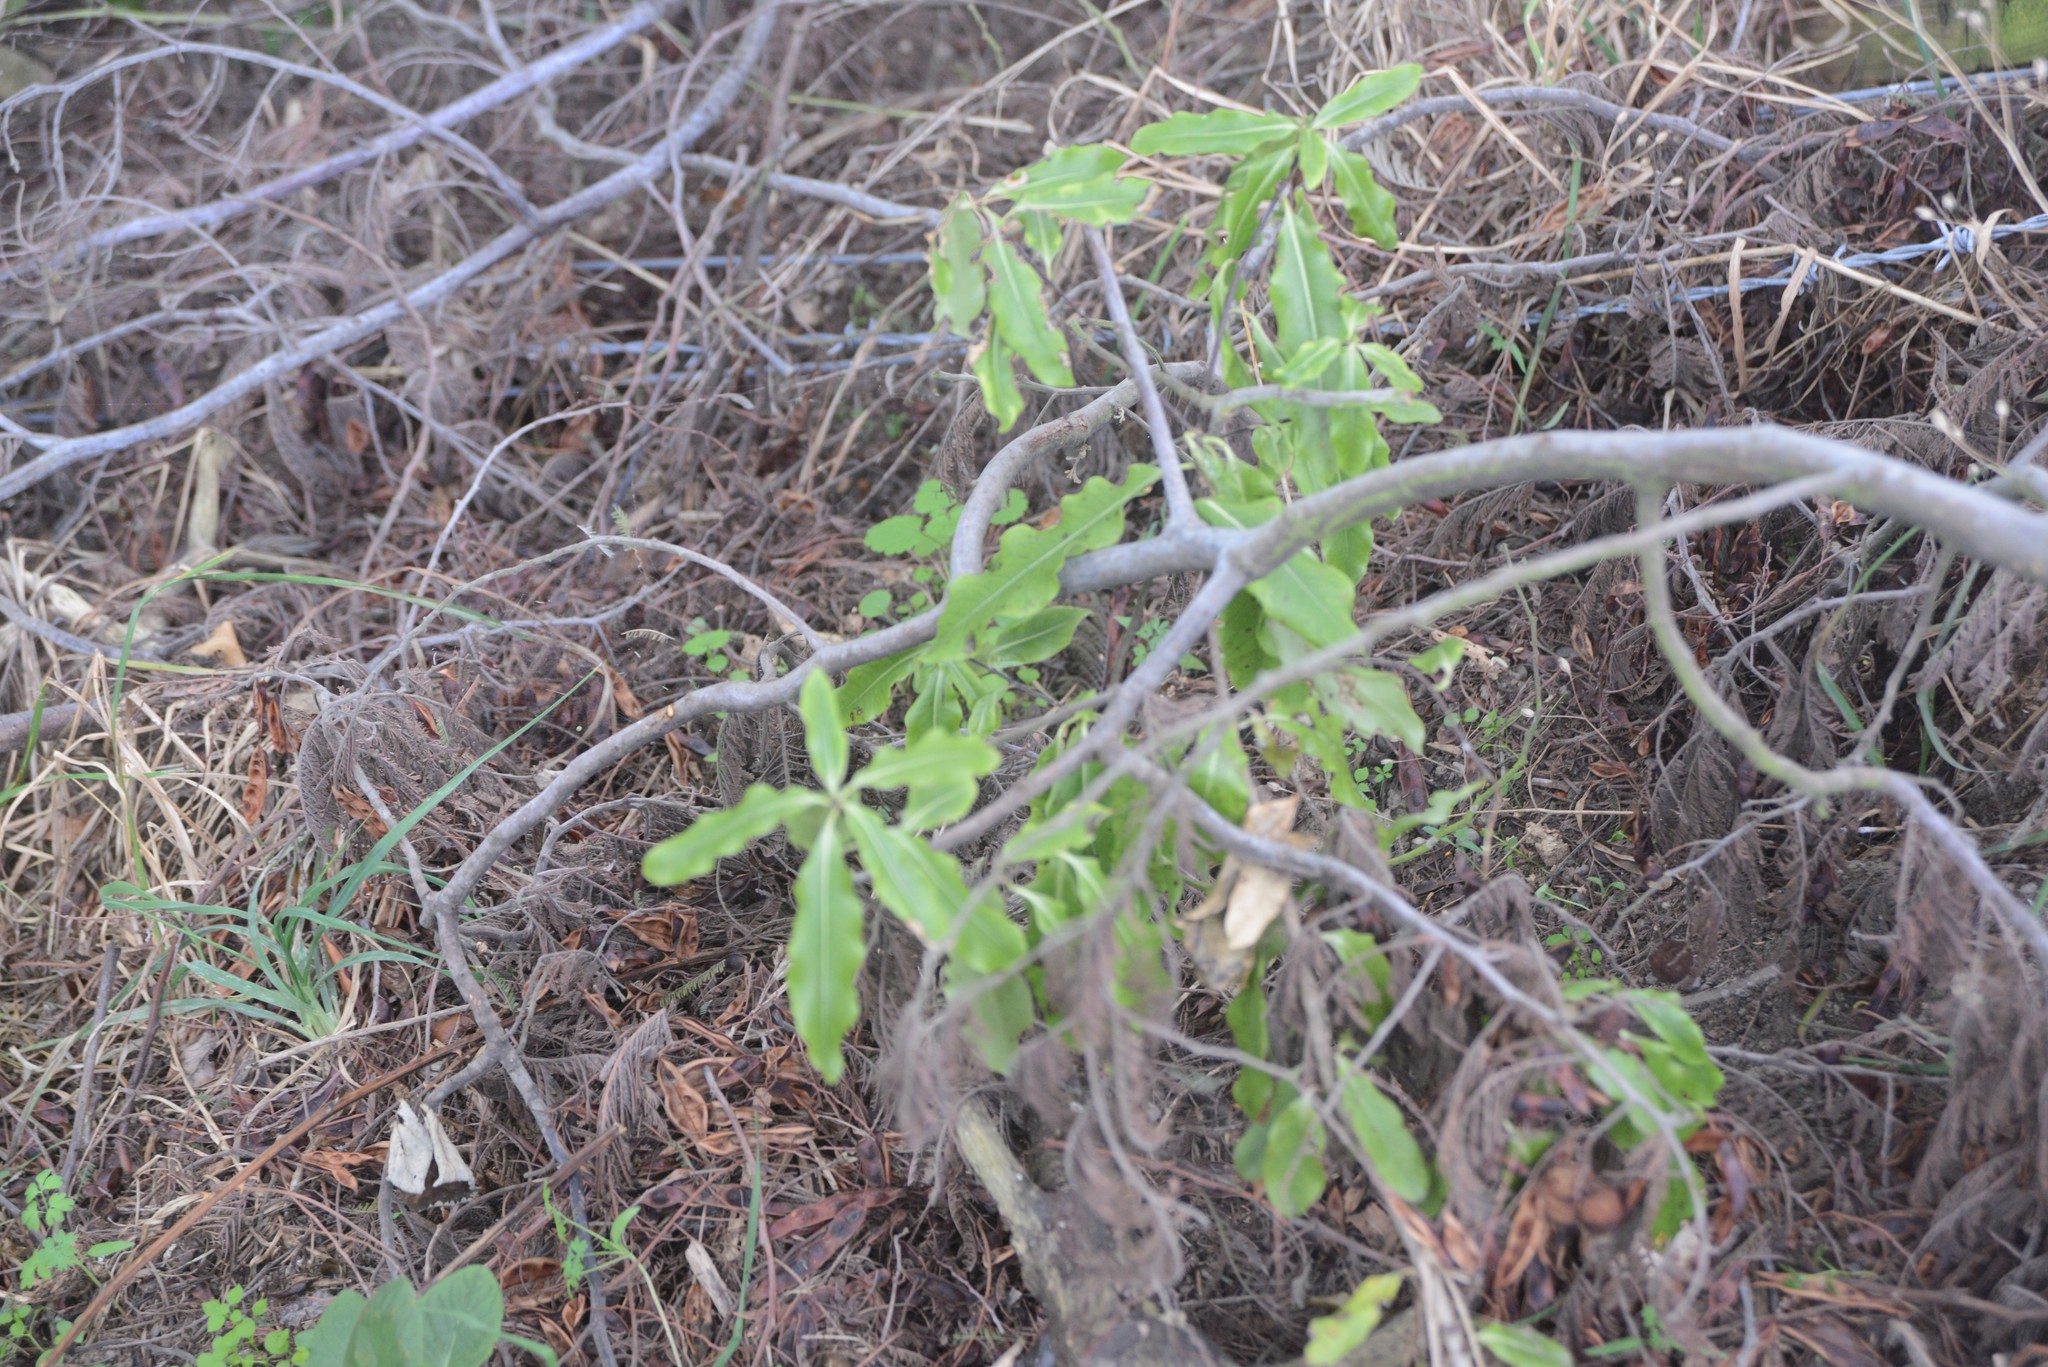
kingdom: Plantae
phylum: Tracheophyta
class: Magnoliopsida
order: Apiales
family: Pittosporaceae
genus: Pittosporum
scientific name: Pittosporum eugenioides
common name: Lemonwood
